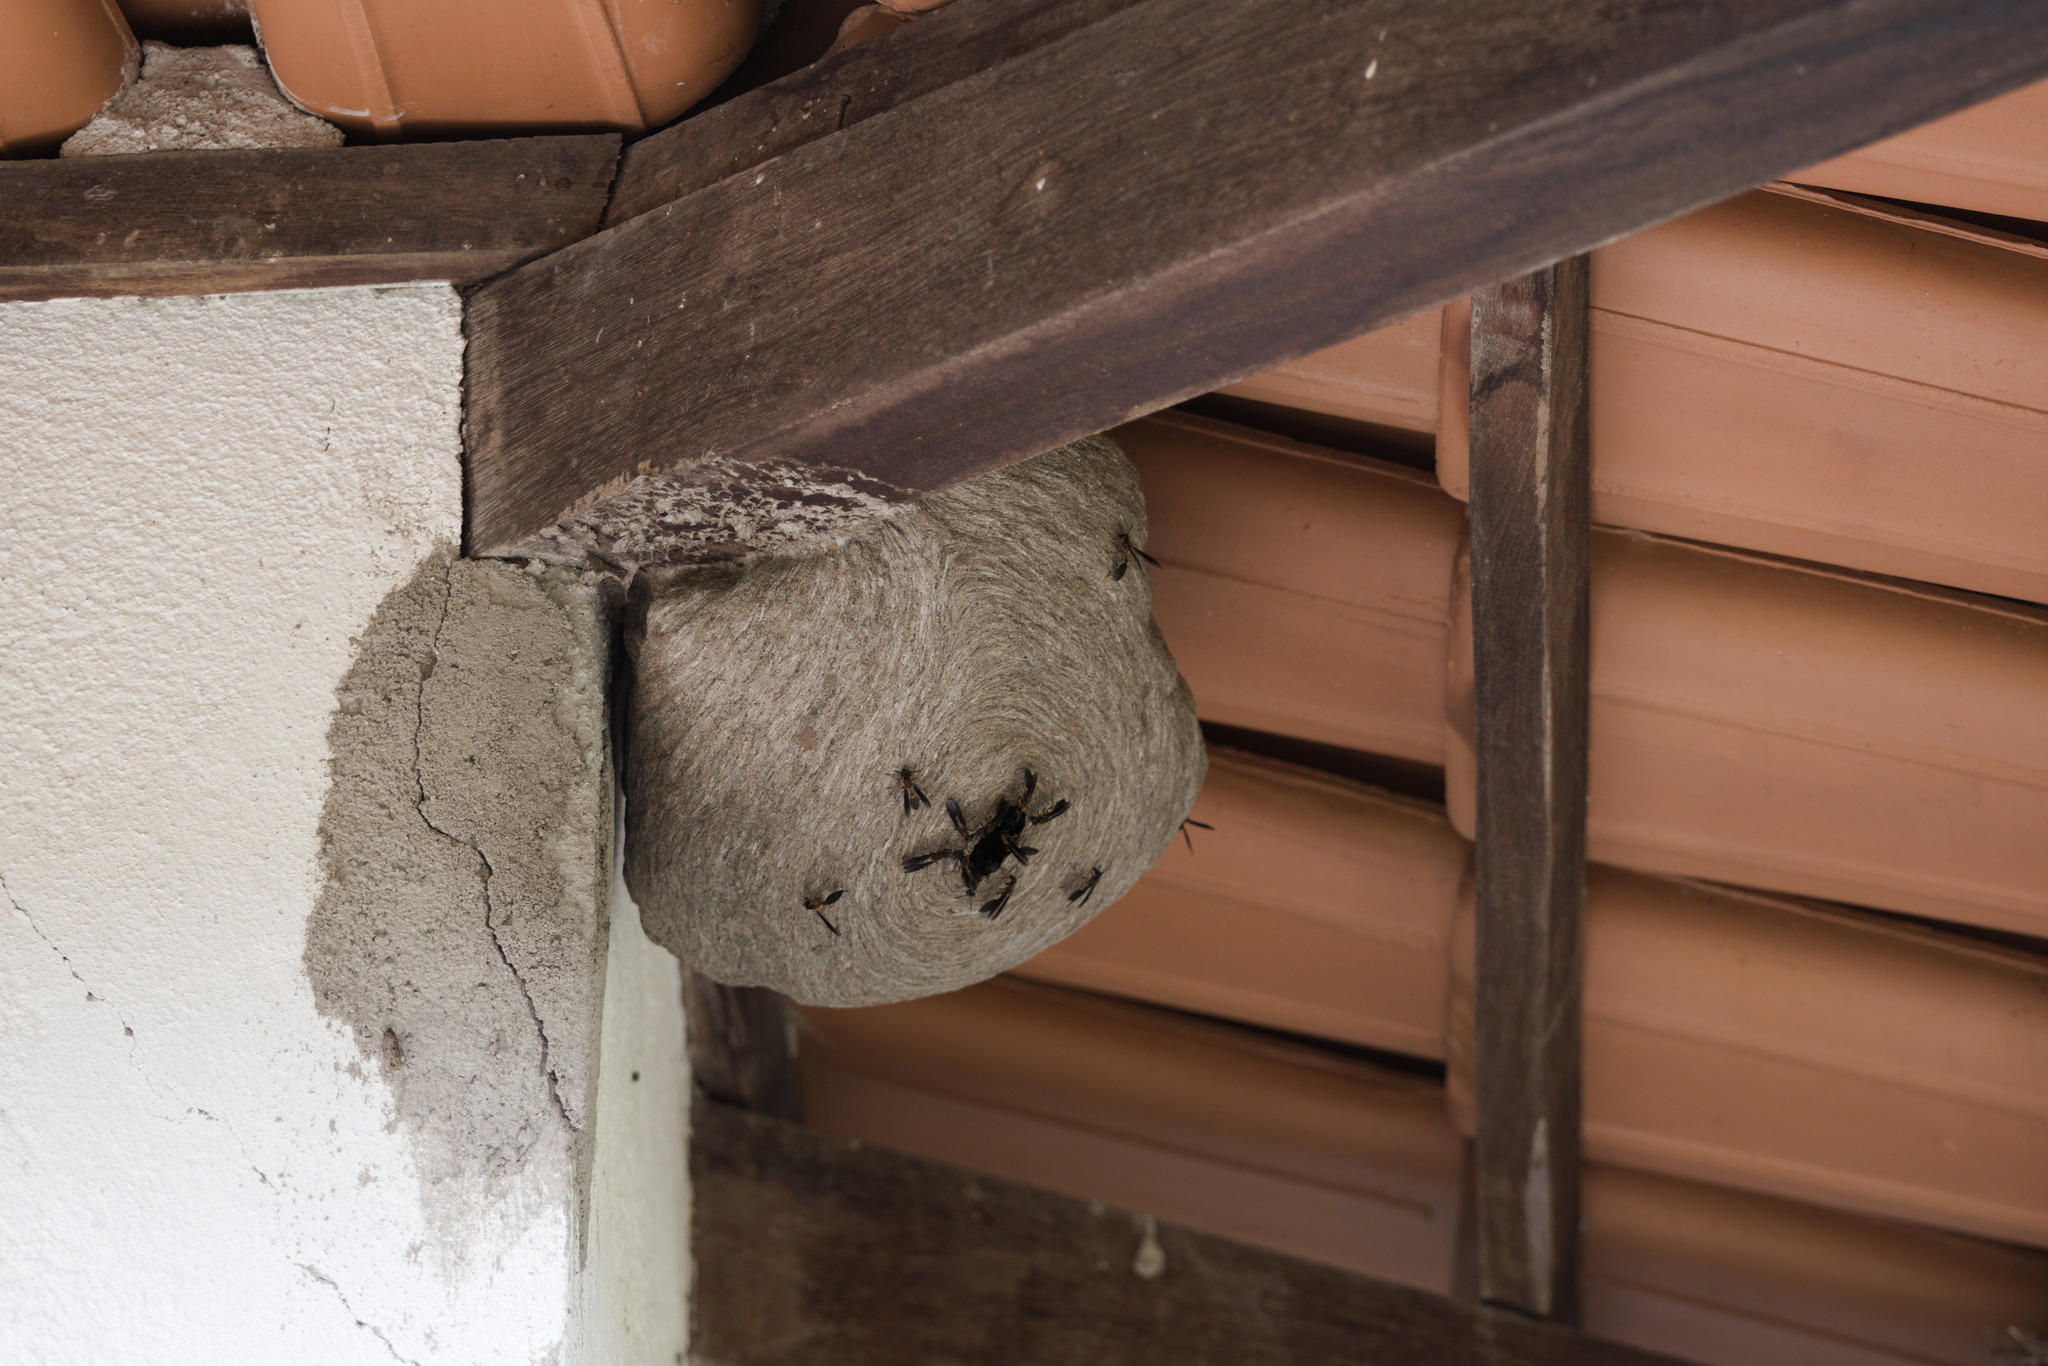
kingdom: Animalia
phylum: Arthropoda
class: Insecta
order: Hymenoptera
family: Eumenidae
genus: Polybia
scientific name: Polybia sericea
